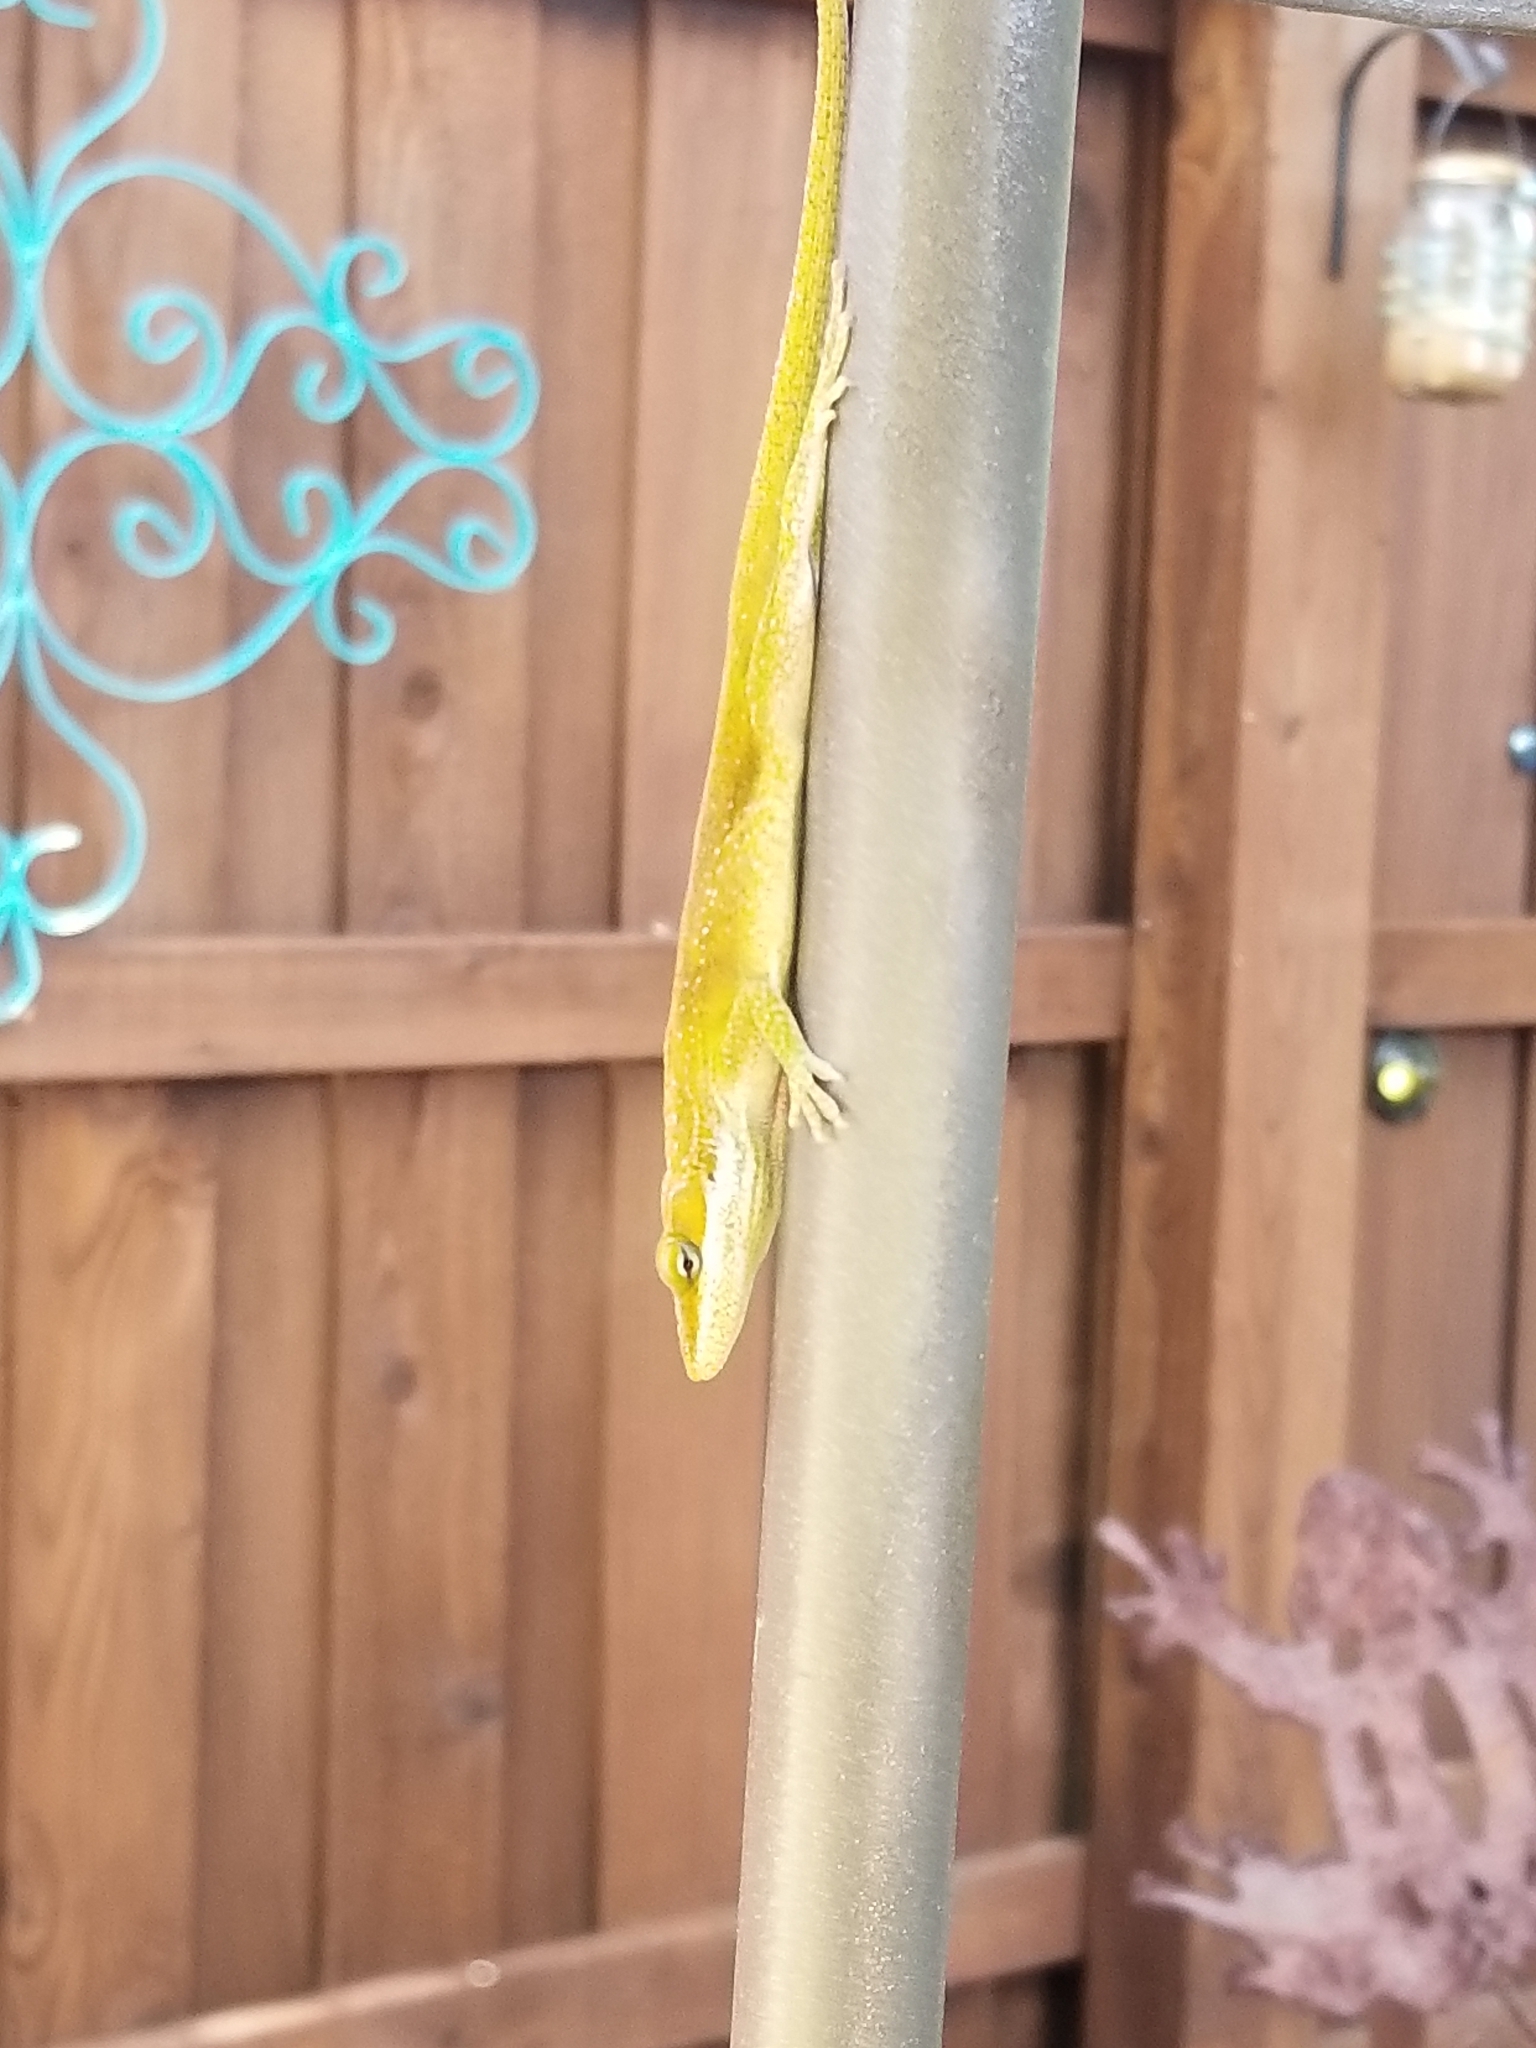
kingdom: Animalia
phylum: Chordata
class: Squamata
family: Dactyloidae
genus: Anolis
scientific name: Anolis carolinensis
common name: Green anole
